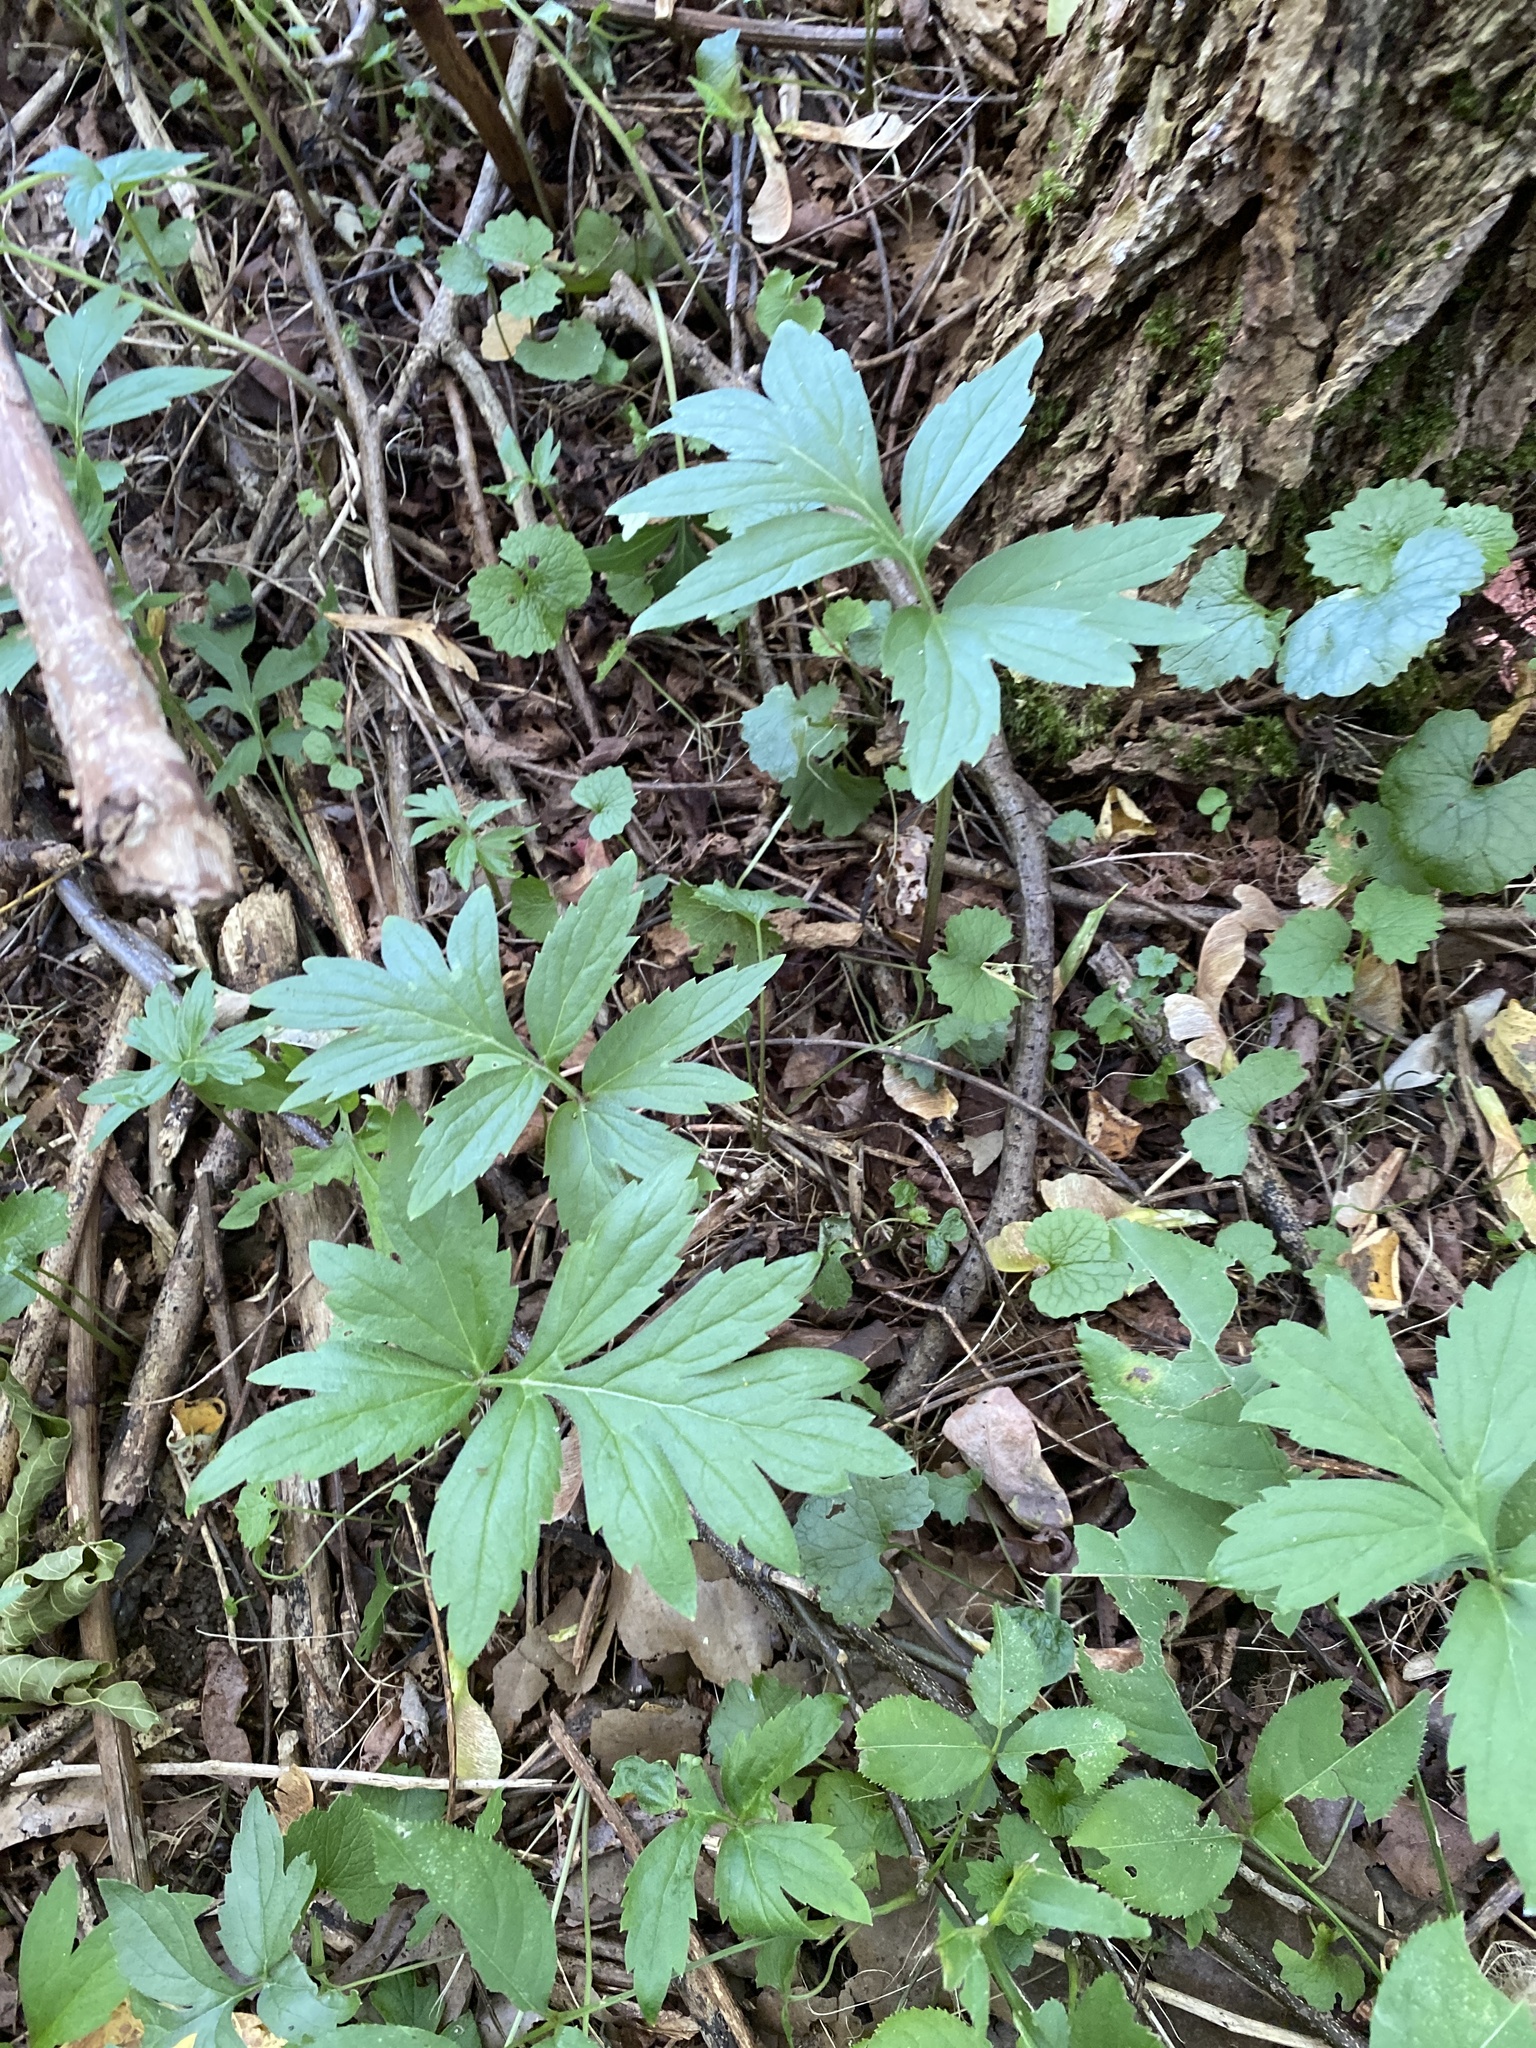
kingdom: Plantae
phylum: Tracheophyta
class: Magnoliopsida
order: Boraginales
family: Hydrophyllaceae
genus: Hydrophyllum
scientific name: Hydrophyllum virginianum
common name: Virginia waterleaf
